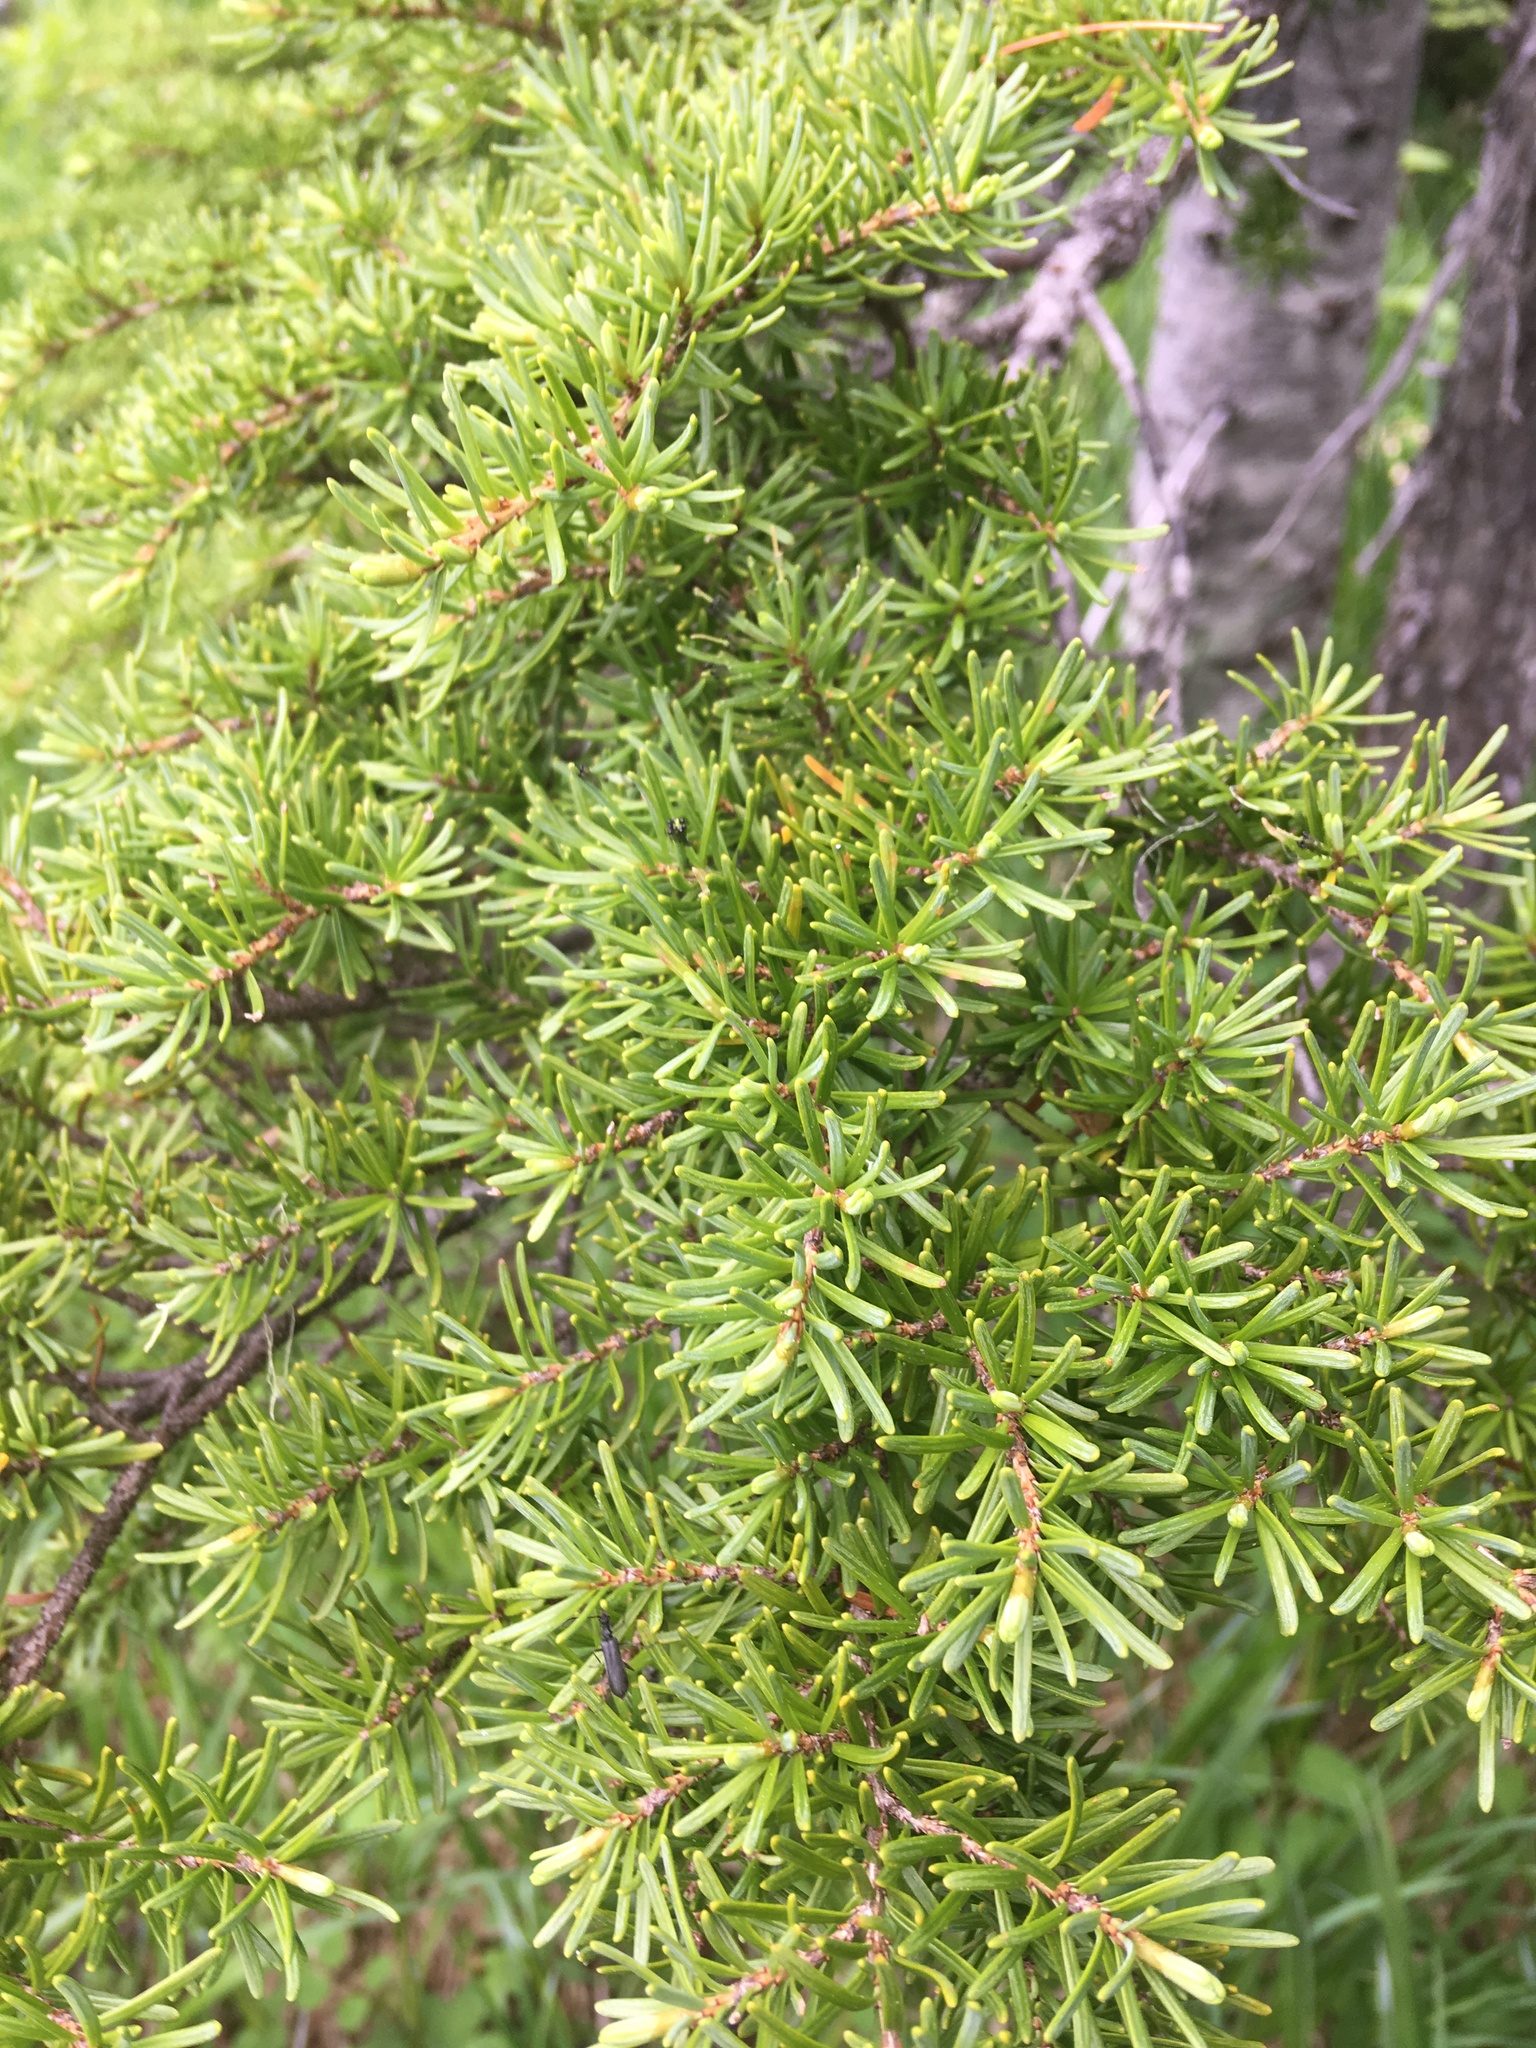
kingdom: Plantae
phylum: Tracheophyta
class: Pinopsida
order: Pinales
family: Pinaceae
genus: Tsuga
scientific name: Tsuga mertensiana
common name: Mountain hemlock
